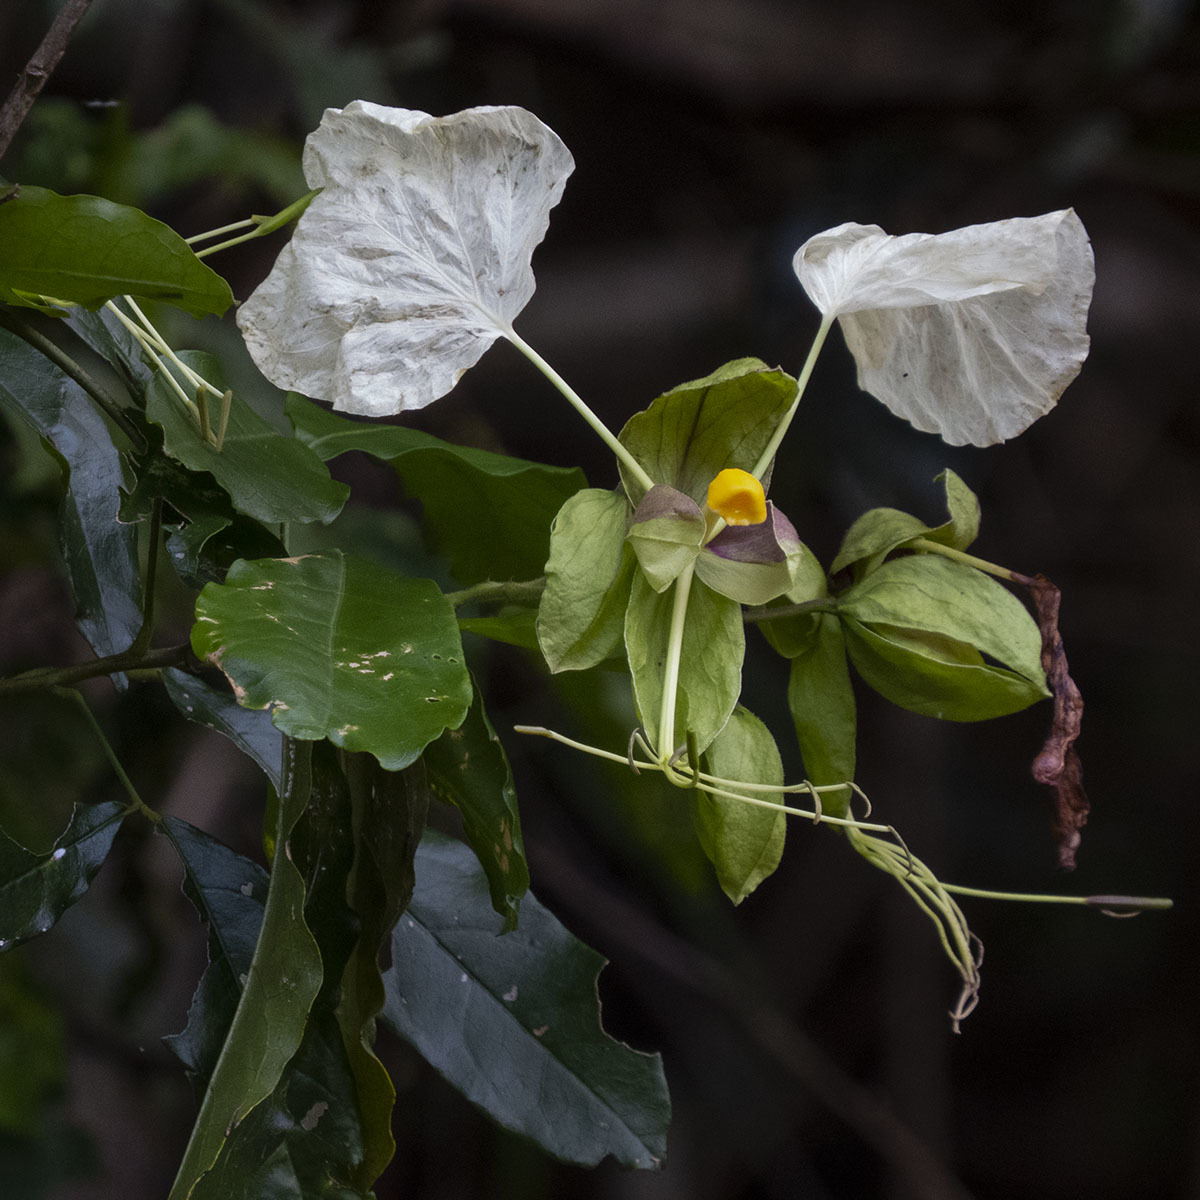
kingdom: Plantae
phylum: Tracheophyta
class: Magnoliopsida
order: Brassicales
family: Capparaceae
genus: Cadaba
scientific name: Cadaba trifoliata
